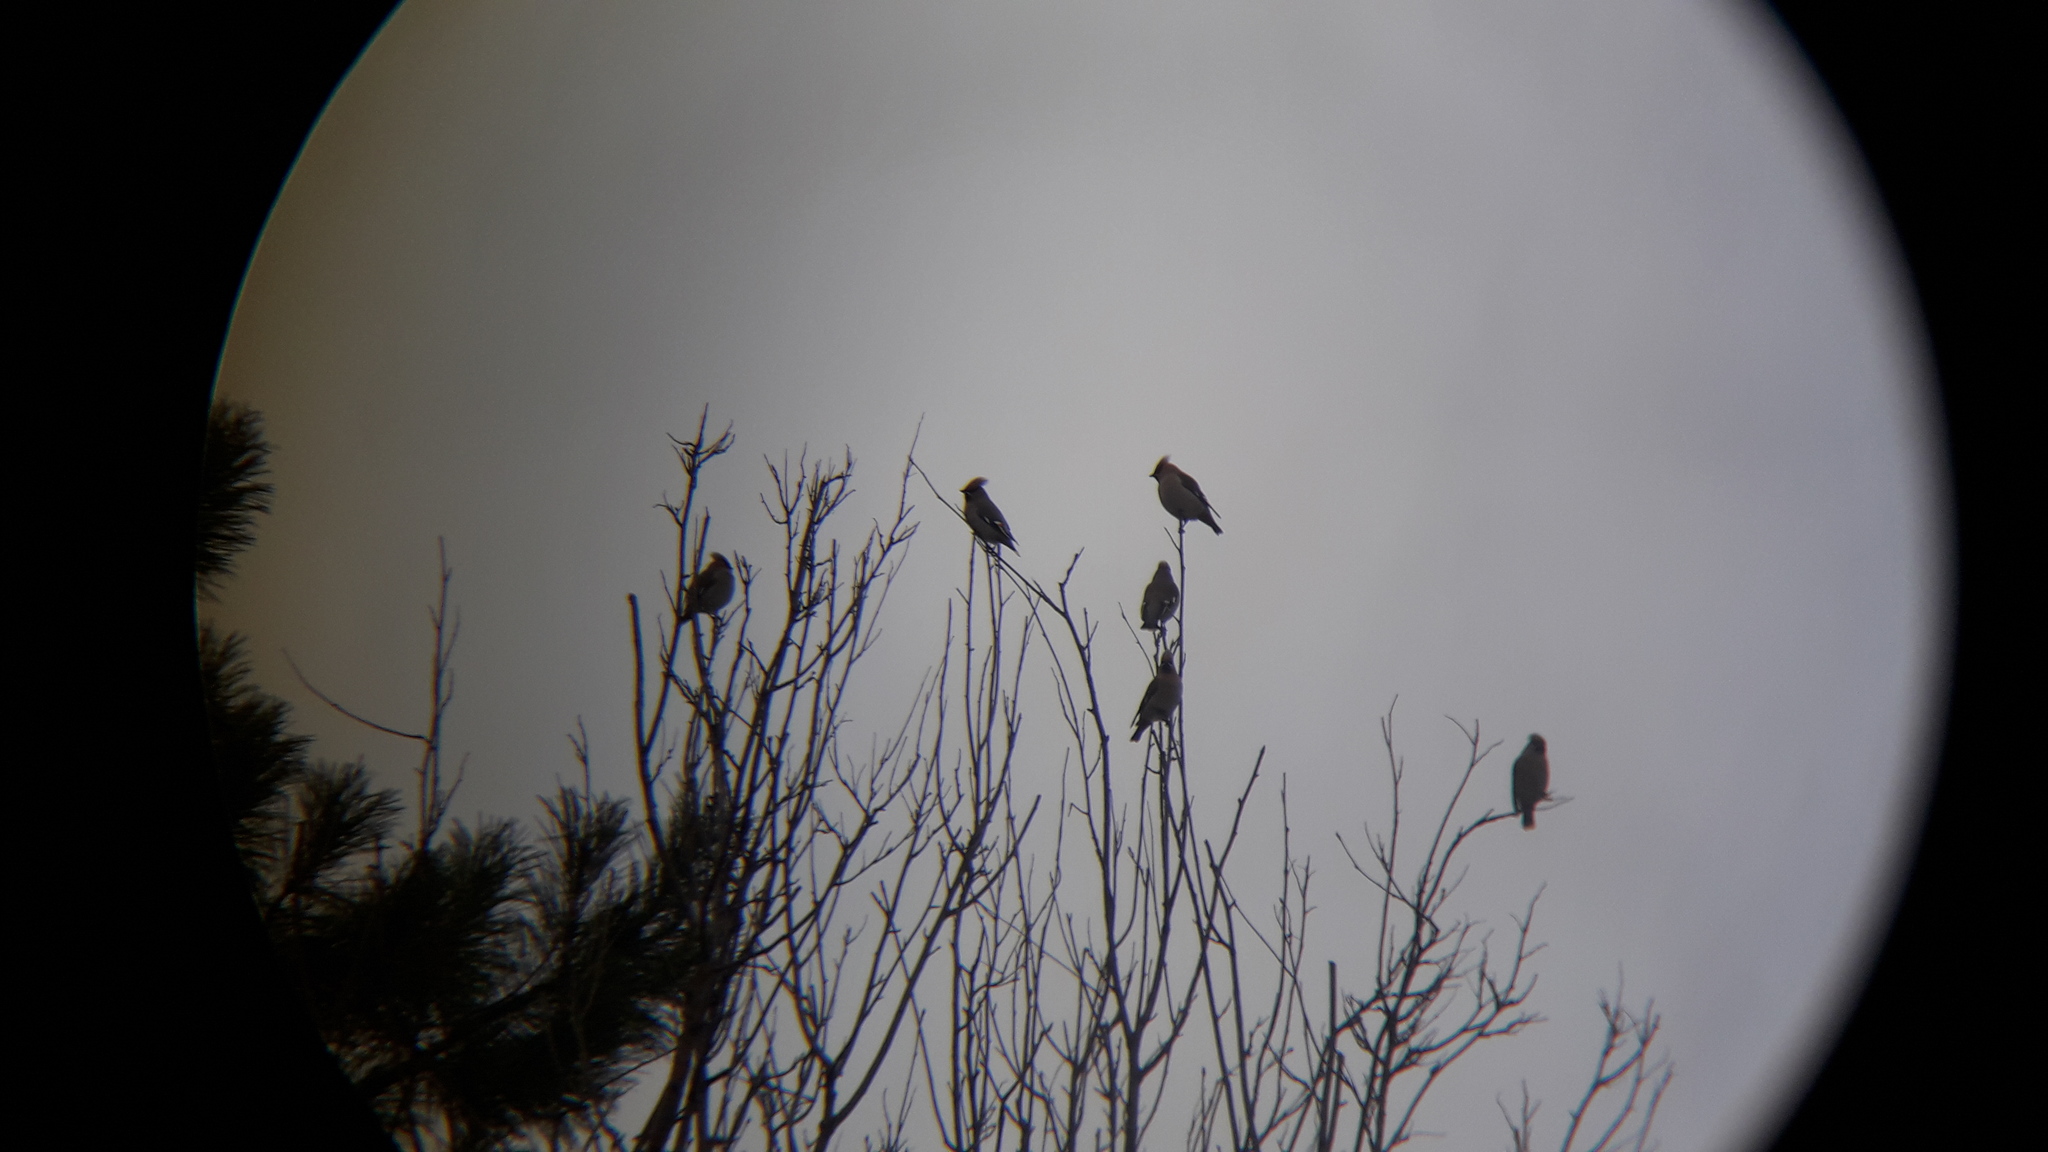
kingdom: Animalia
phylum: Chordata
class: Aves
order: Passeriformes
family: Bombycillidae
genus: Bombycilla
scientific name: Bombycilla garrulus
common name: Bohemian waxwing
